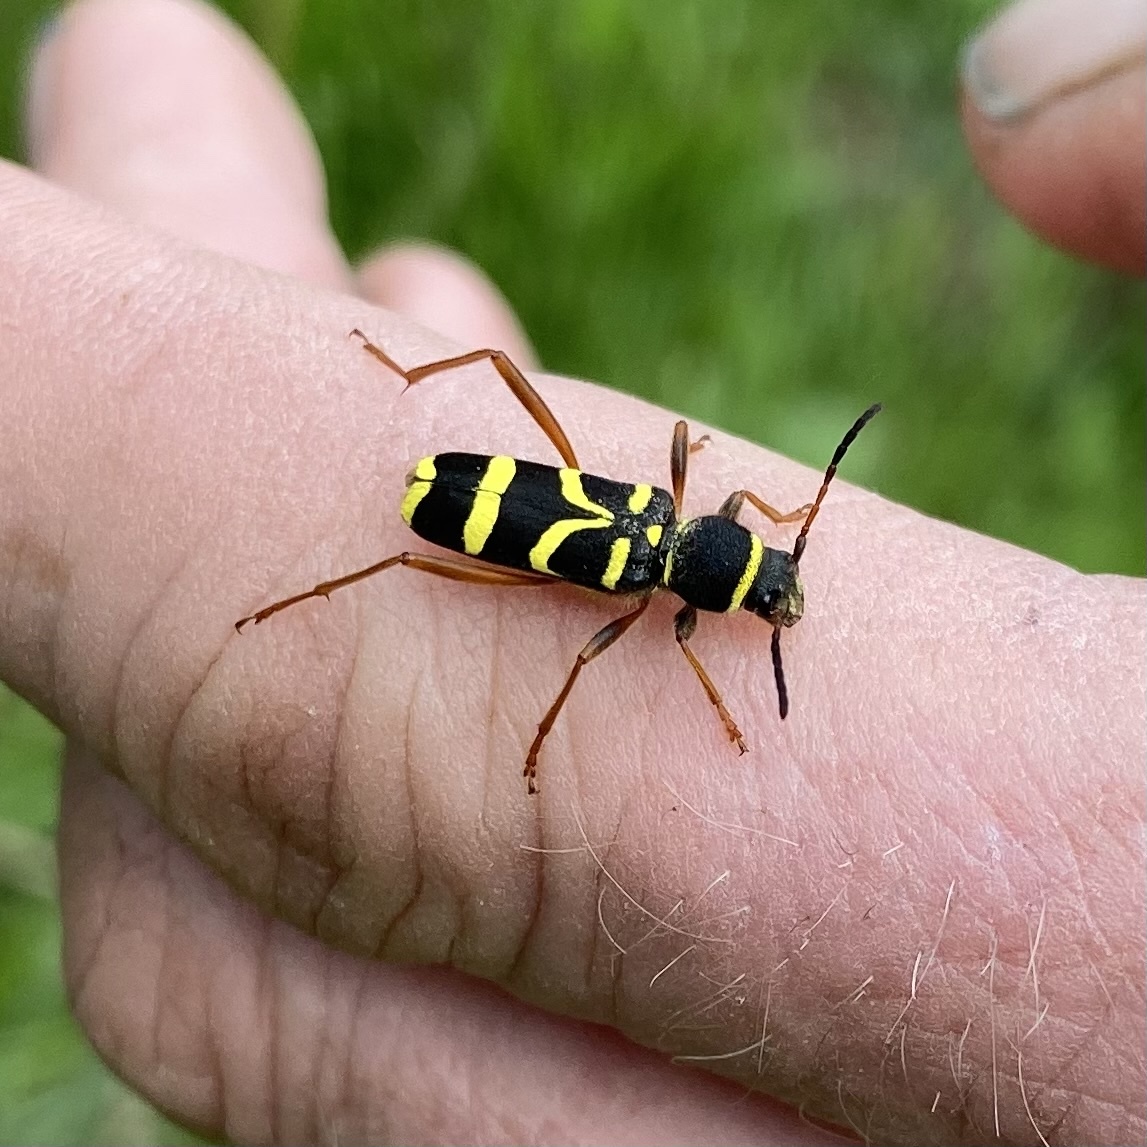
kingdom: Animalia
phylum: Arthropoda
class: Insecta
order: Coleoptera
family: Cerambycidae
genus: Clytus
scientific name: Clytus arietis
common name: Wasp beetle
